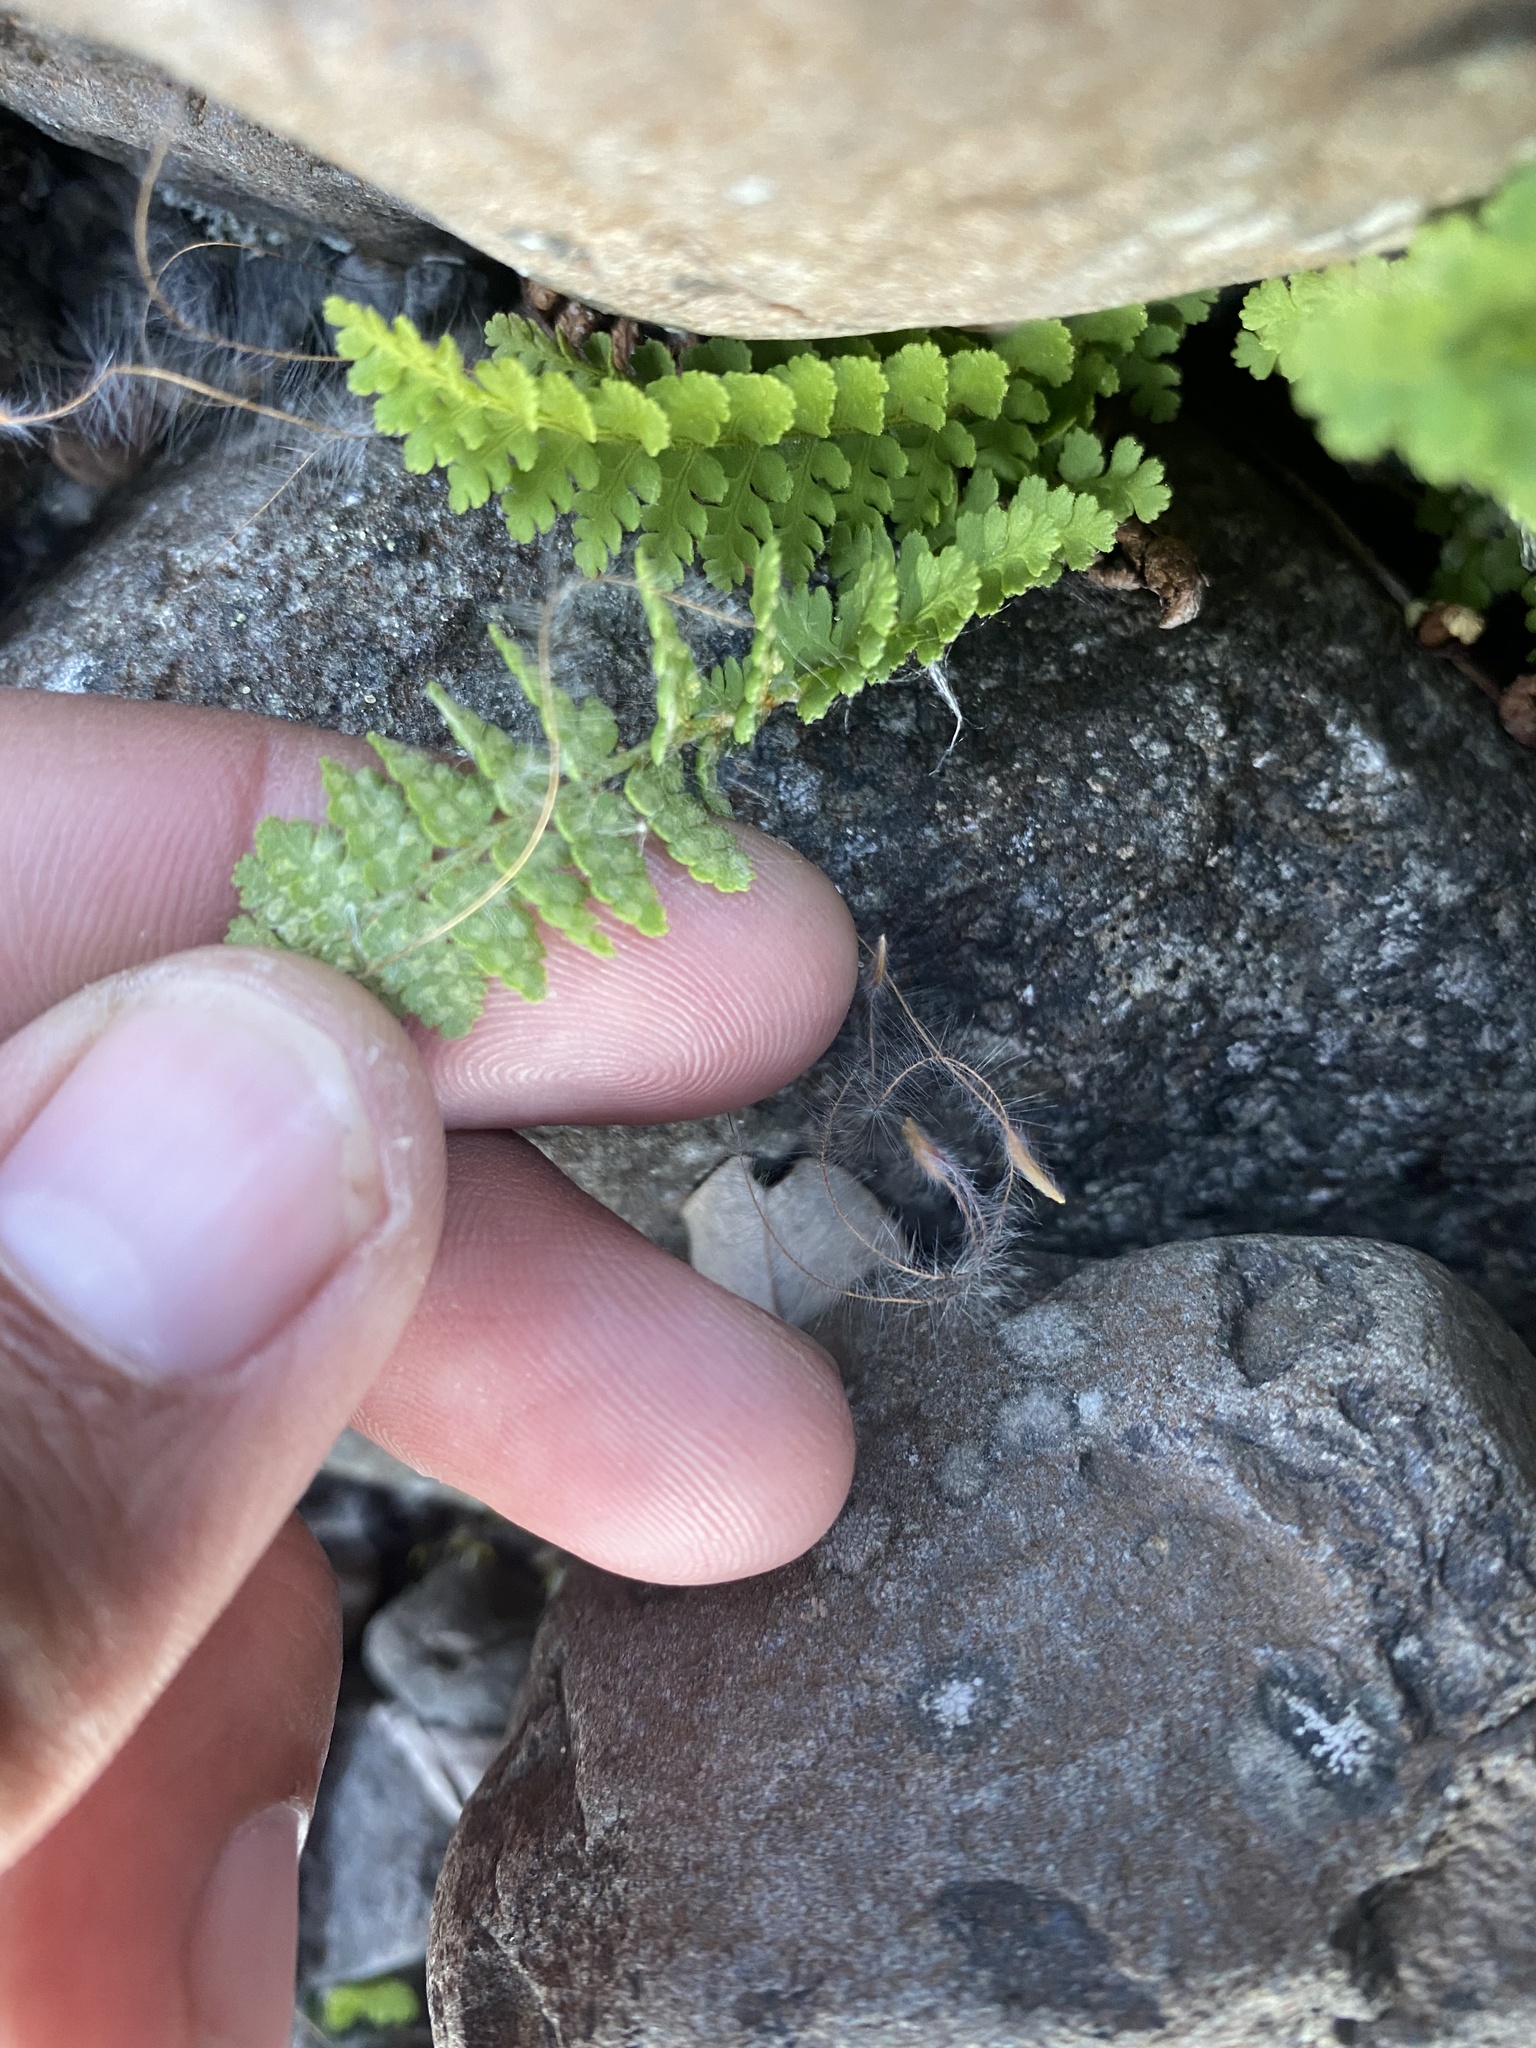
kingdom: Plantae
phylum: Tracheophyta
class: Polypodiopsida
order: Polypodiales
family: Dryopteridaceae
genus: Dryopteris
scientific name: Dryopteris fragrans
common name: Fragrant wood fern
